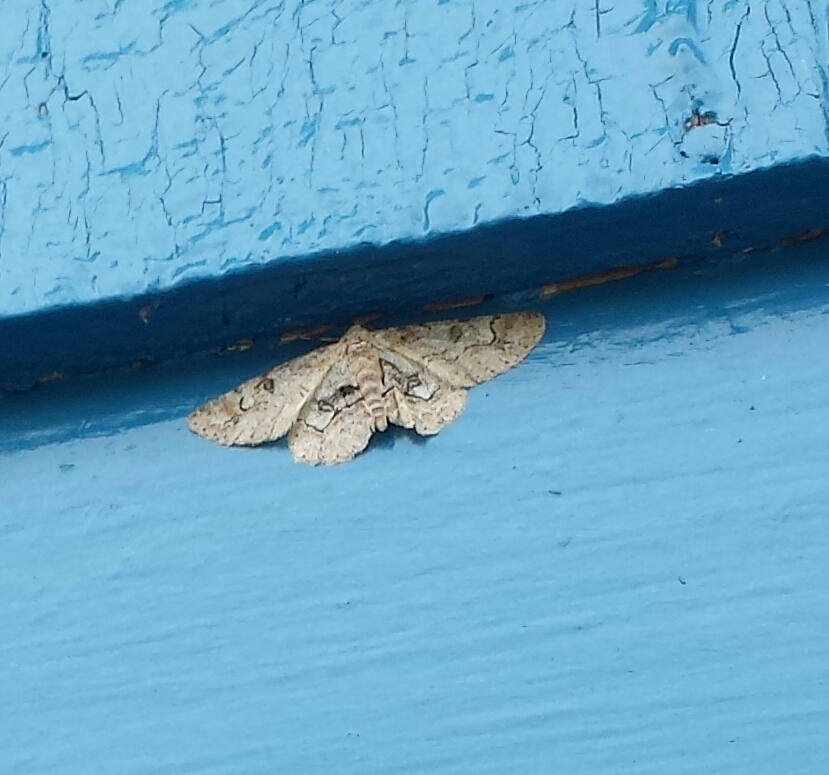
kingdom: Animalia
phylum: Arthropoda
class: Insecta
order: Lepidoptera
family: Geometridae
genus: Iridopsis
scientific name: Iridopsis larvaria
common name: Bent-line gray
